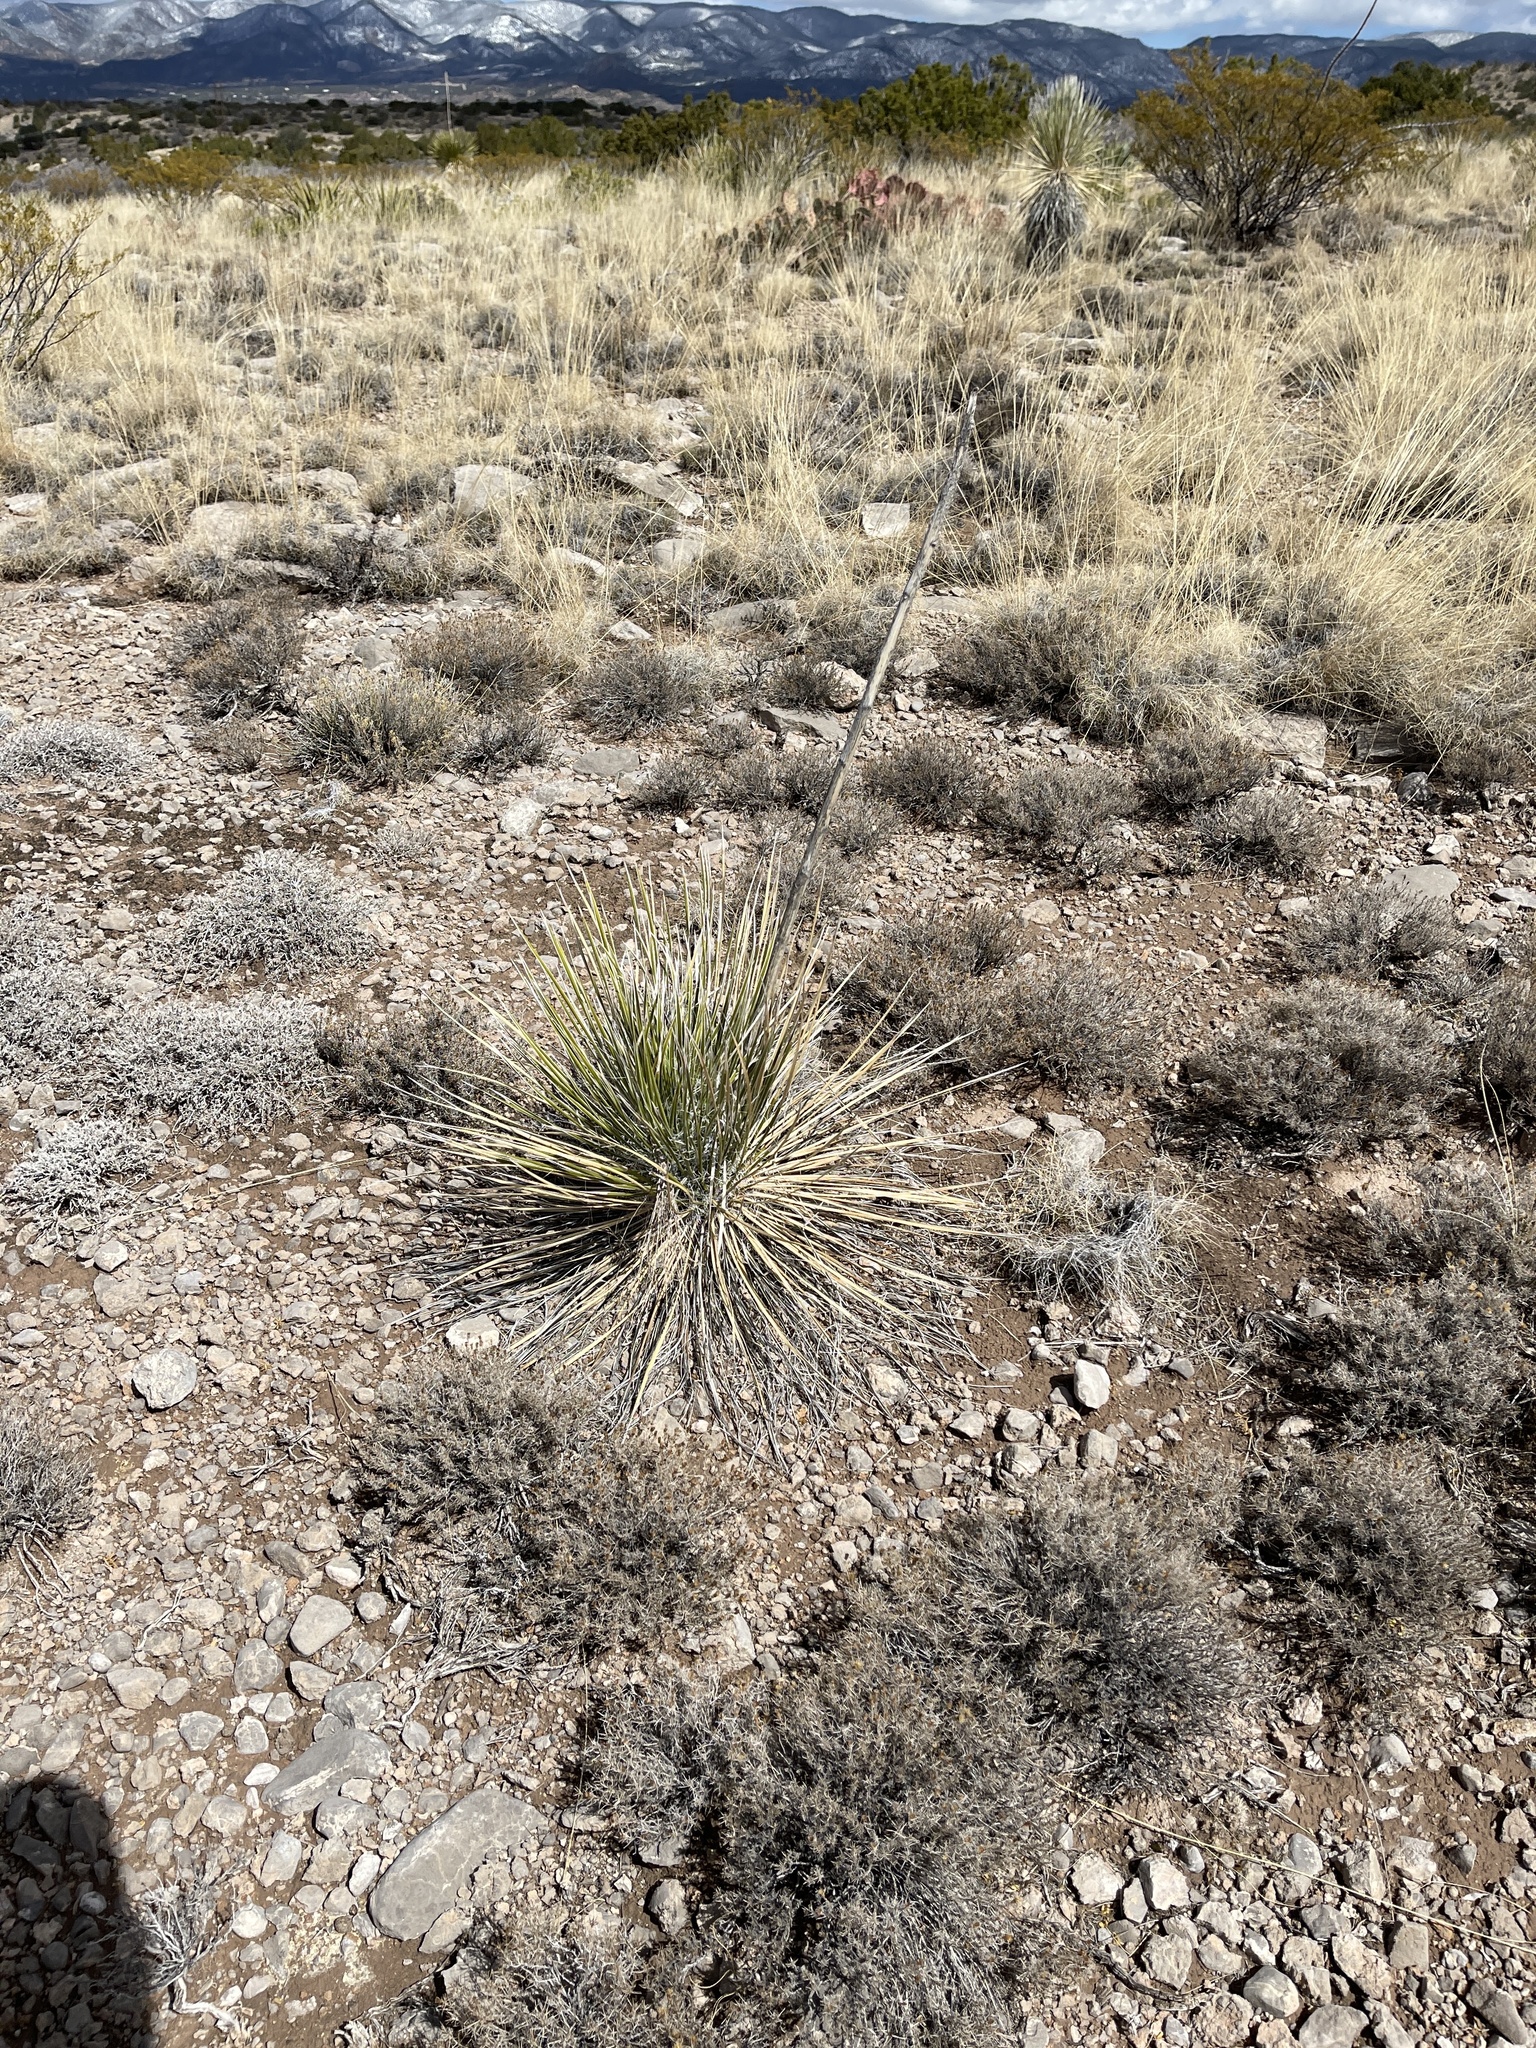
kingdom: Plantae
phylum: Tracheophyta
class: Liliopsida
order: Asparagales
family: Asparagaceae
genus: Yucca
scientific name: Yucca elata
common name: Palmella
